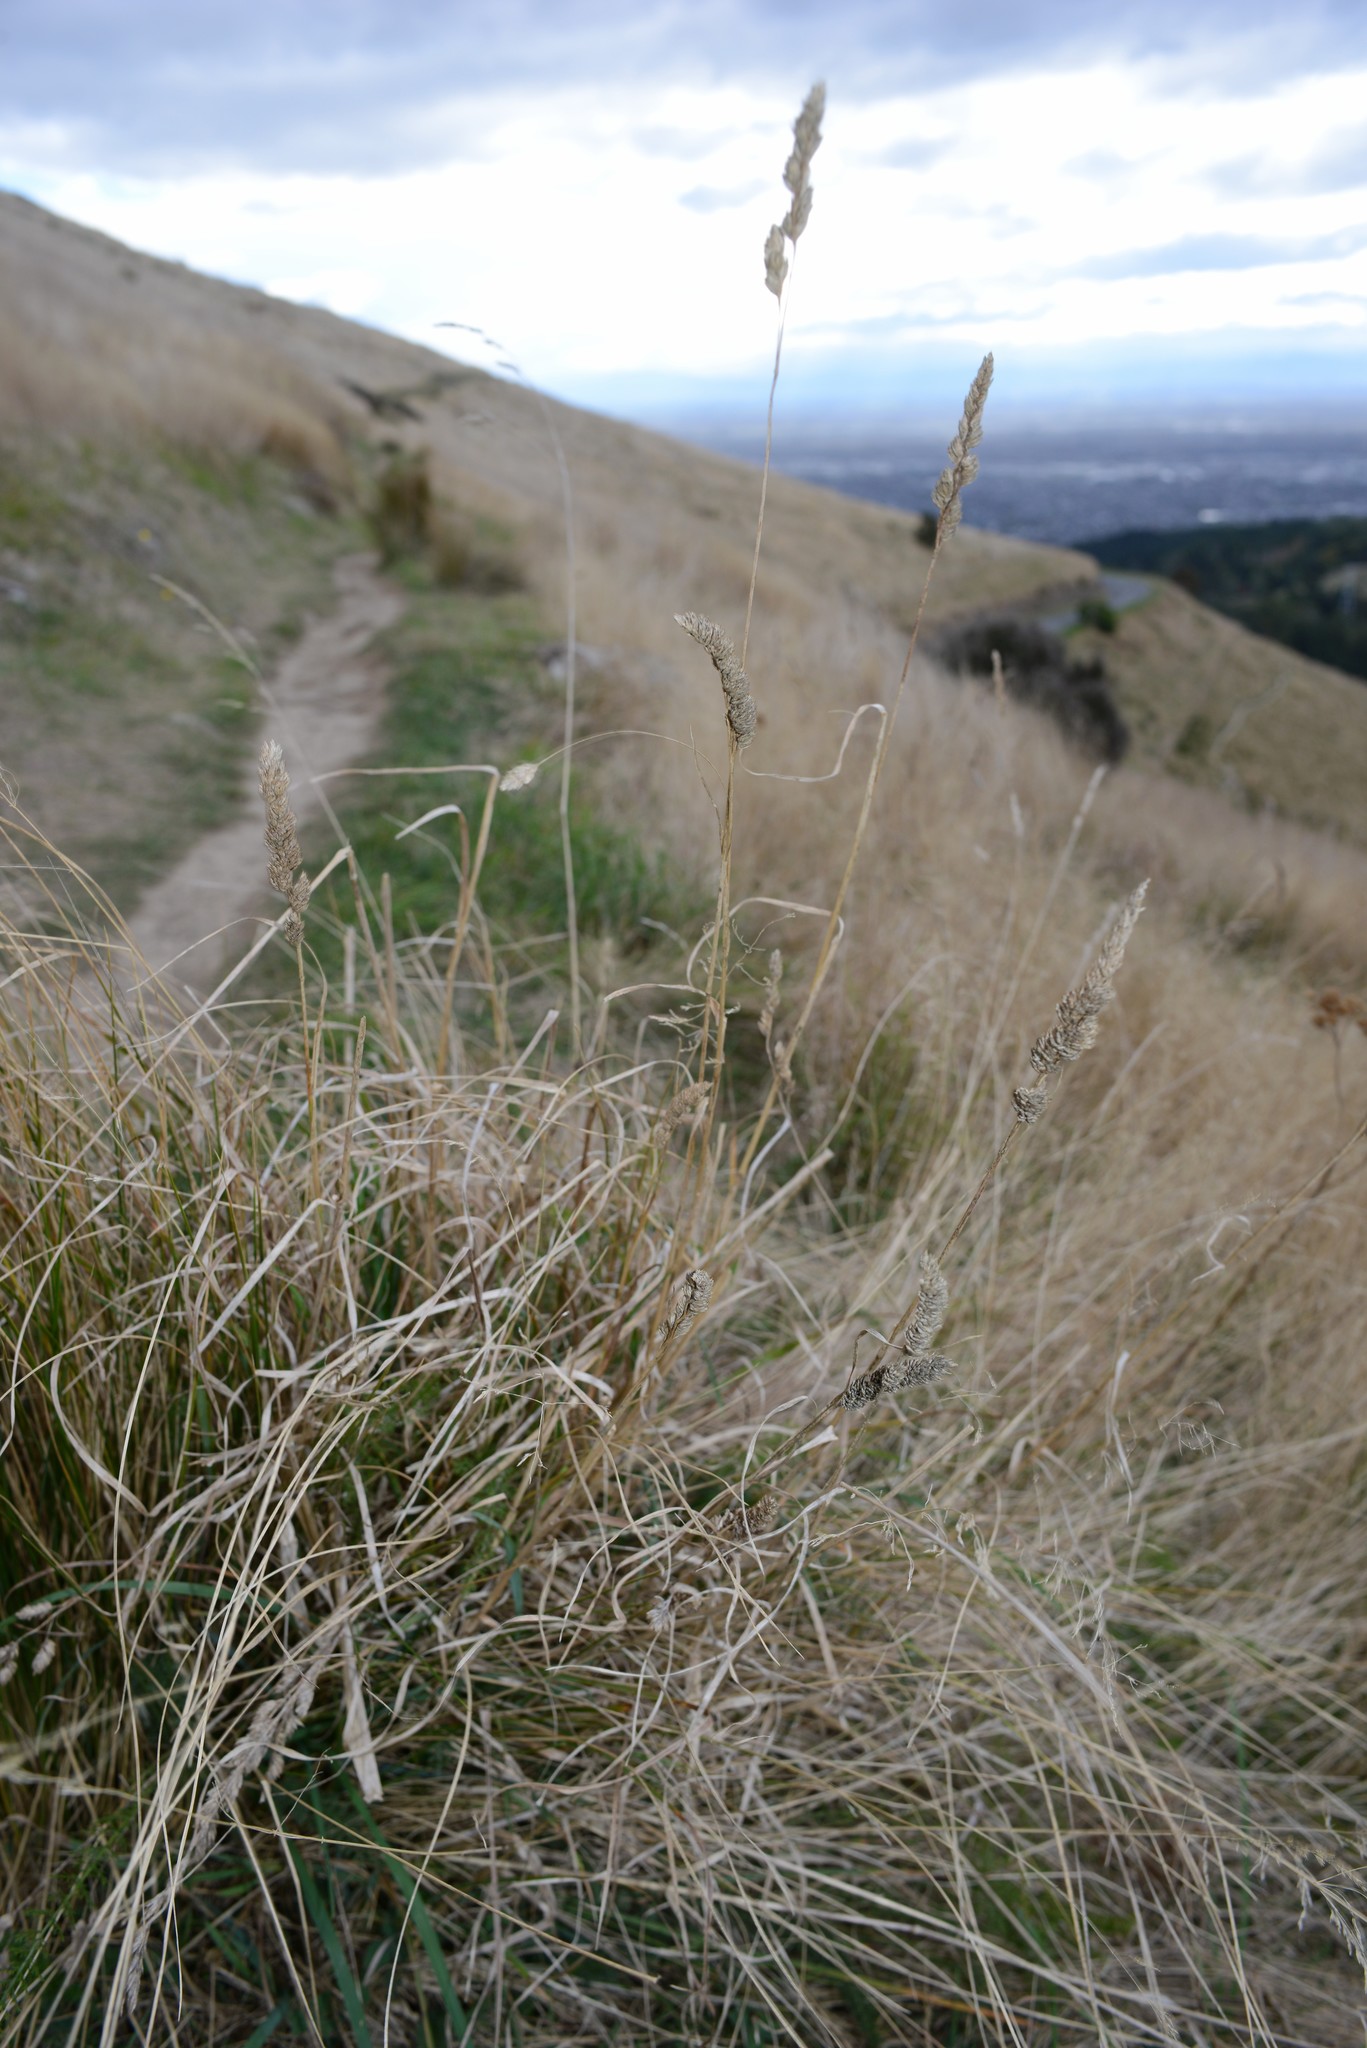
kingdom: Plantae
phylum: Tracheophyta
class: Liliopsida
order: Poales
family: Poaceae
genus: Dactylis
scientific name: Dactylis glomerata
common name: Orchardgrass
